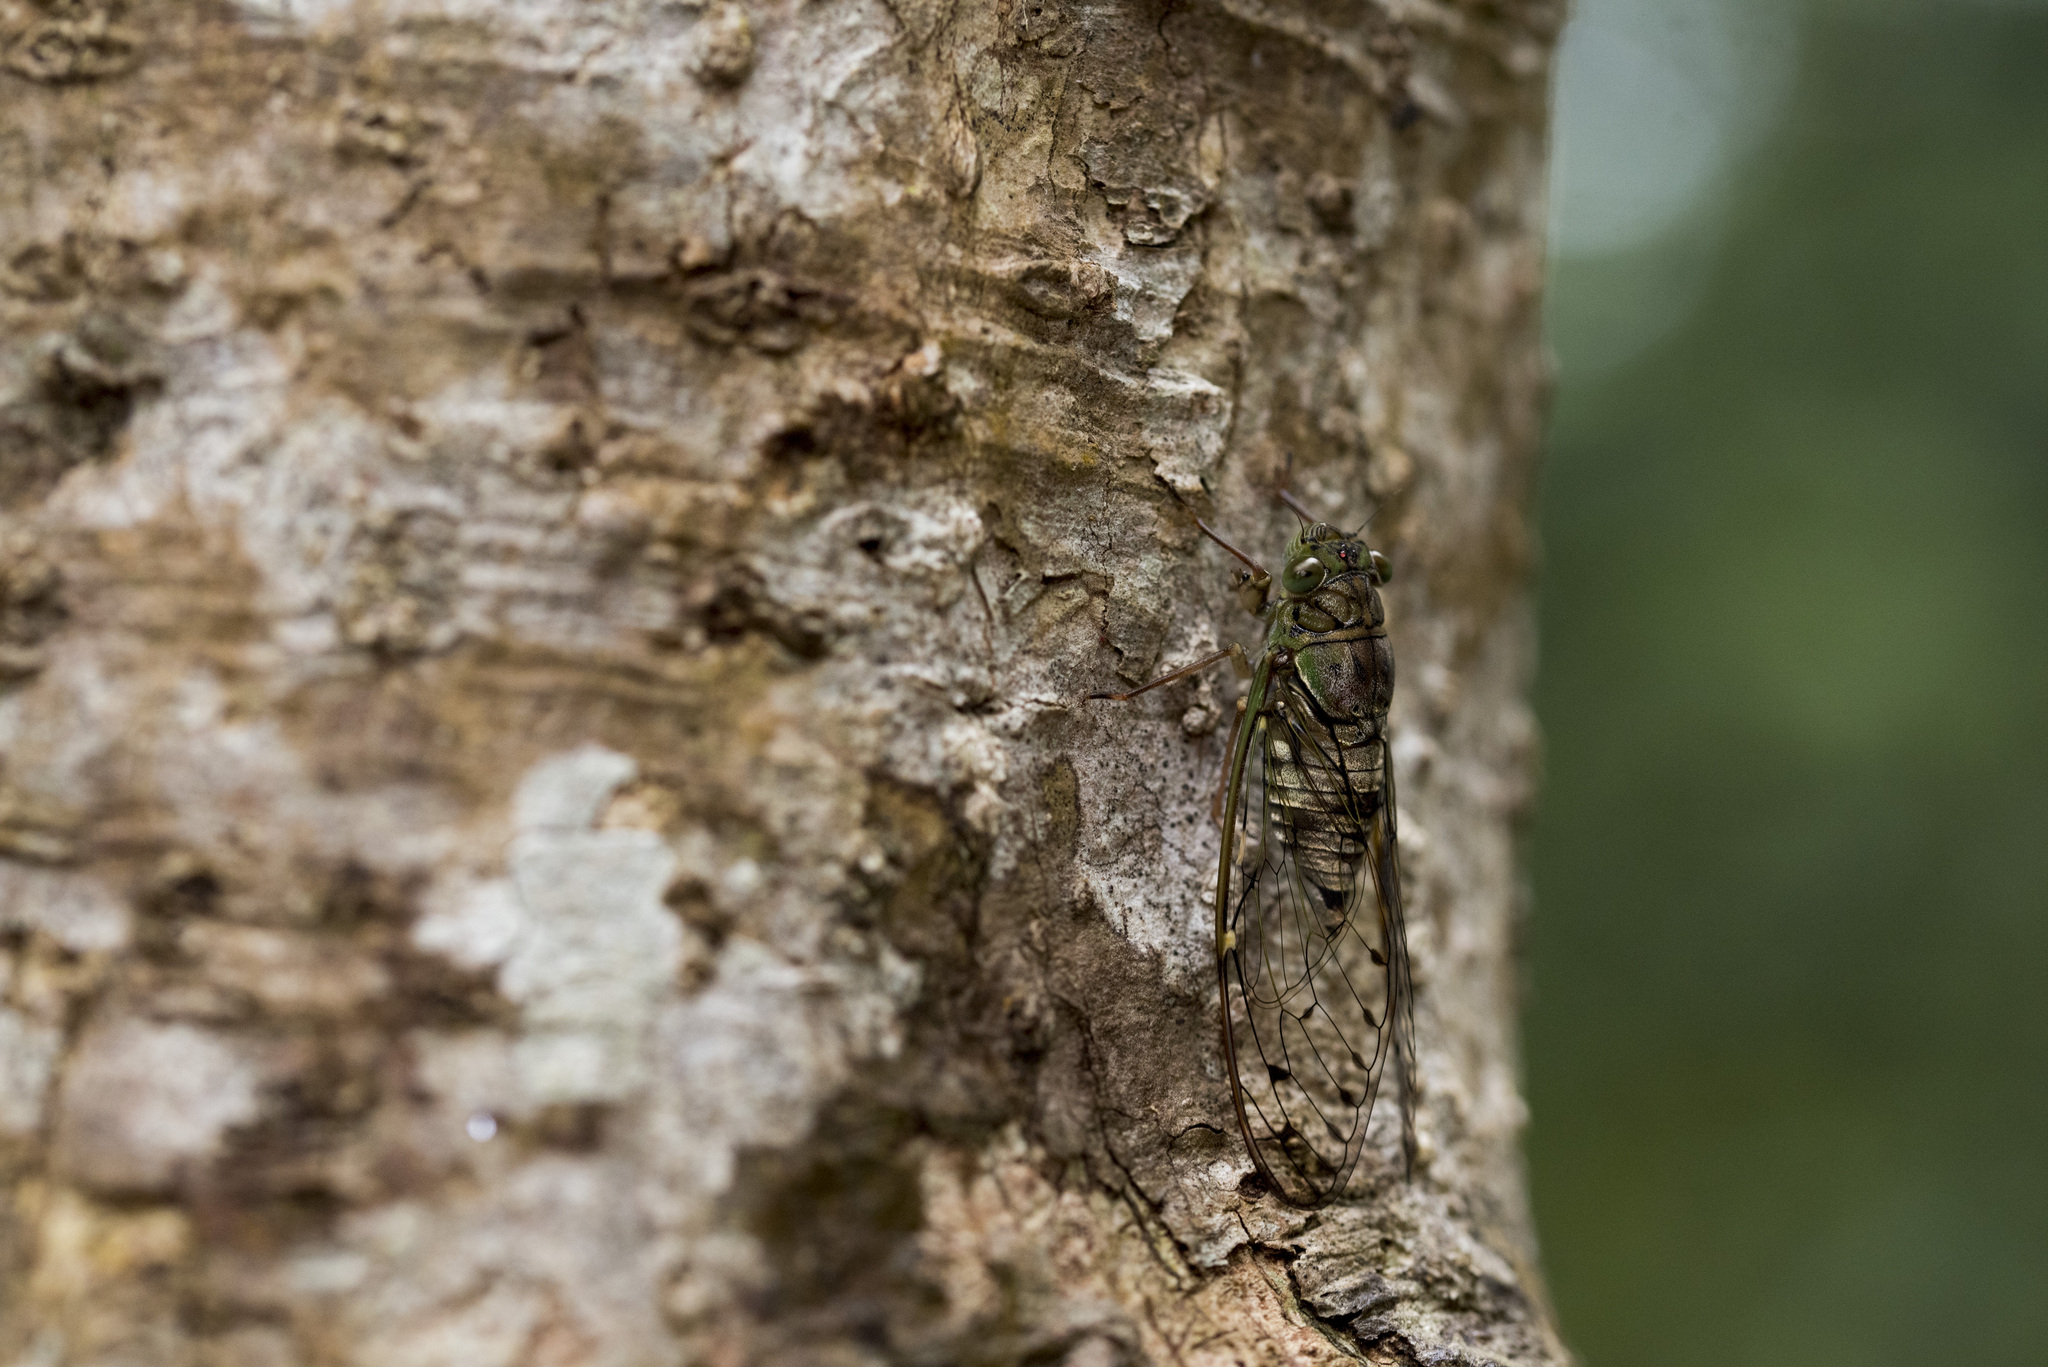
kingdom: Animalia
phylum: Arthropoda
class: Insecta
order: Hemiptera
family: Cicadidae
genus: Formosemia
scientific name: Formosemia apicalis
